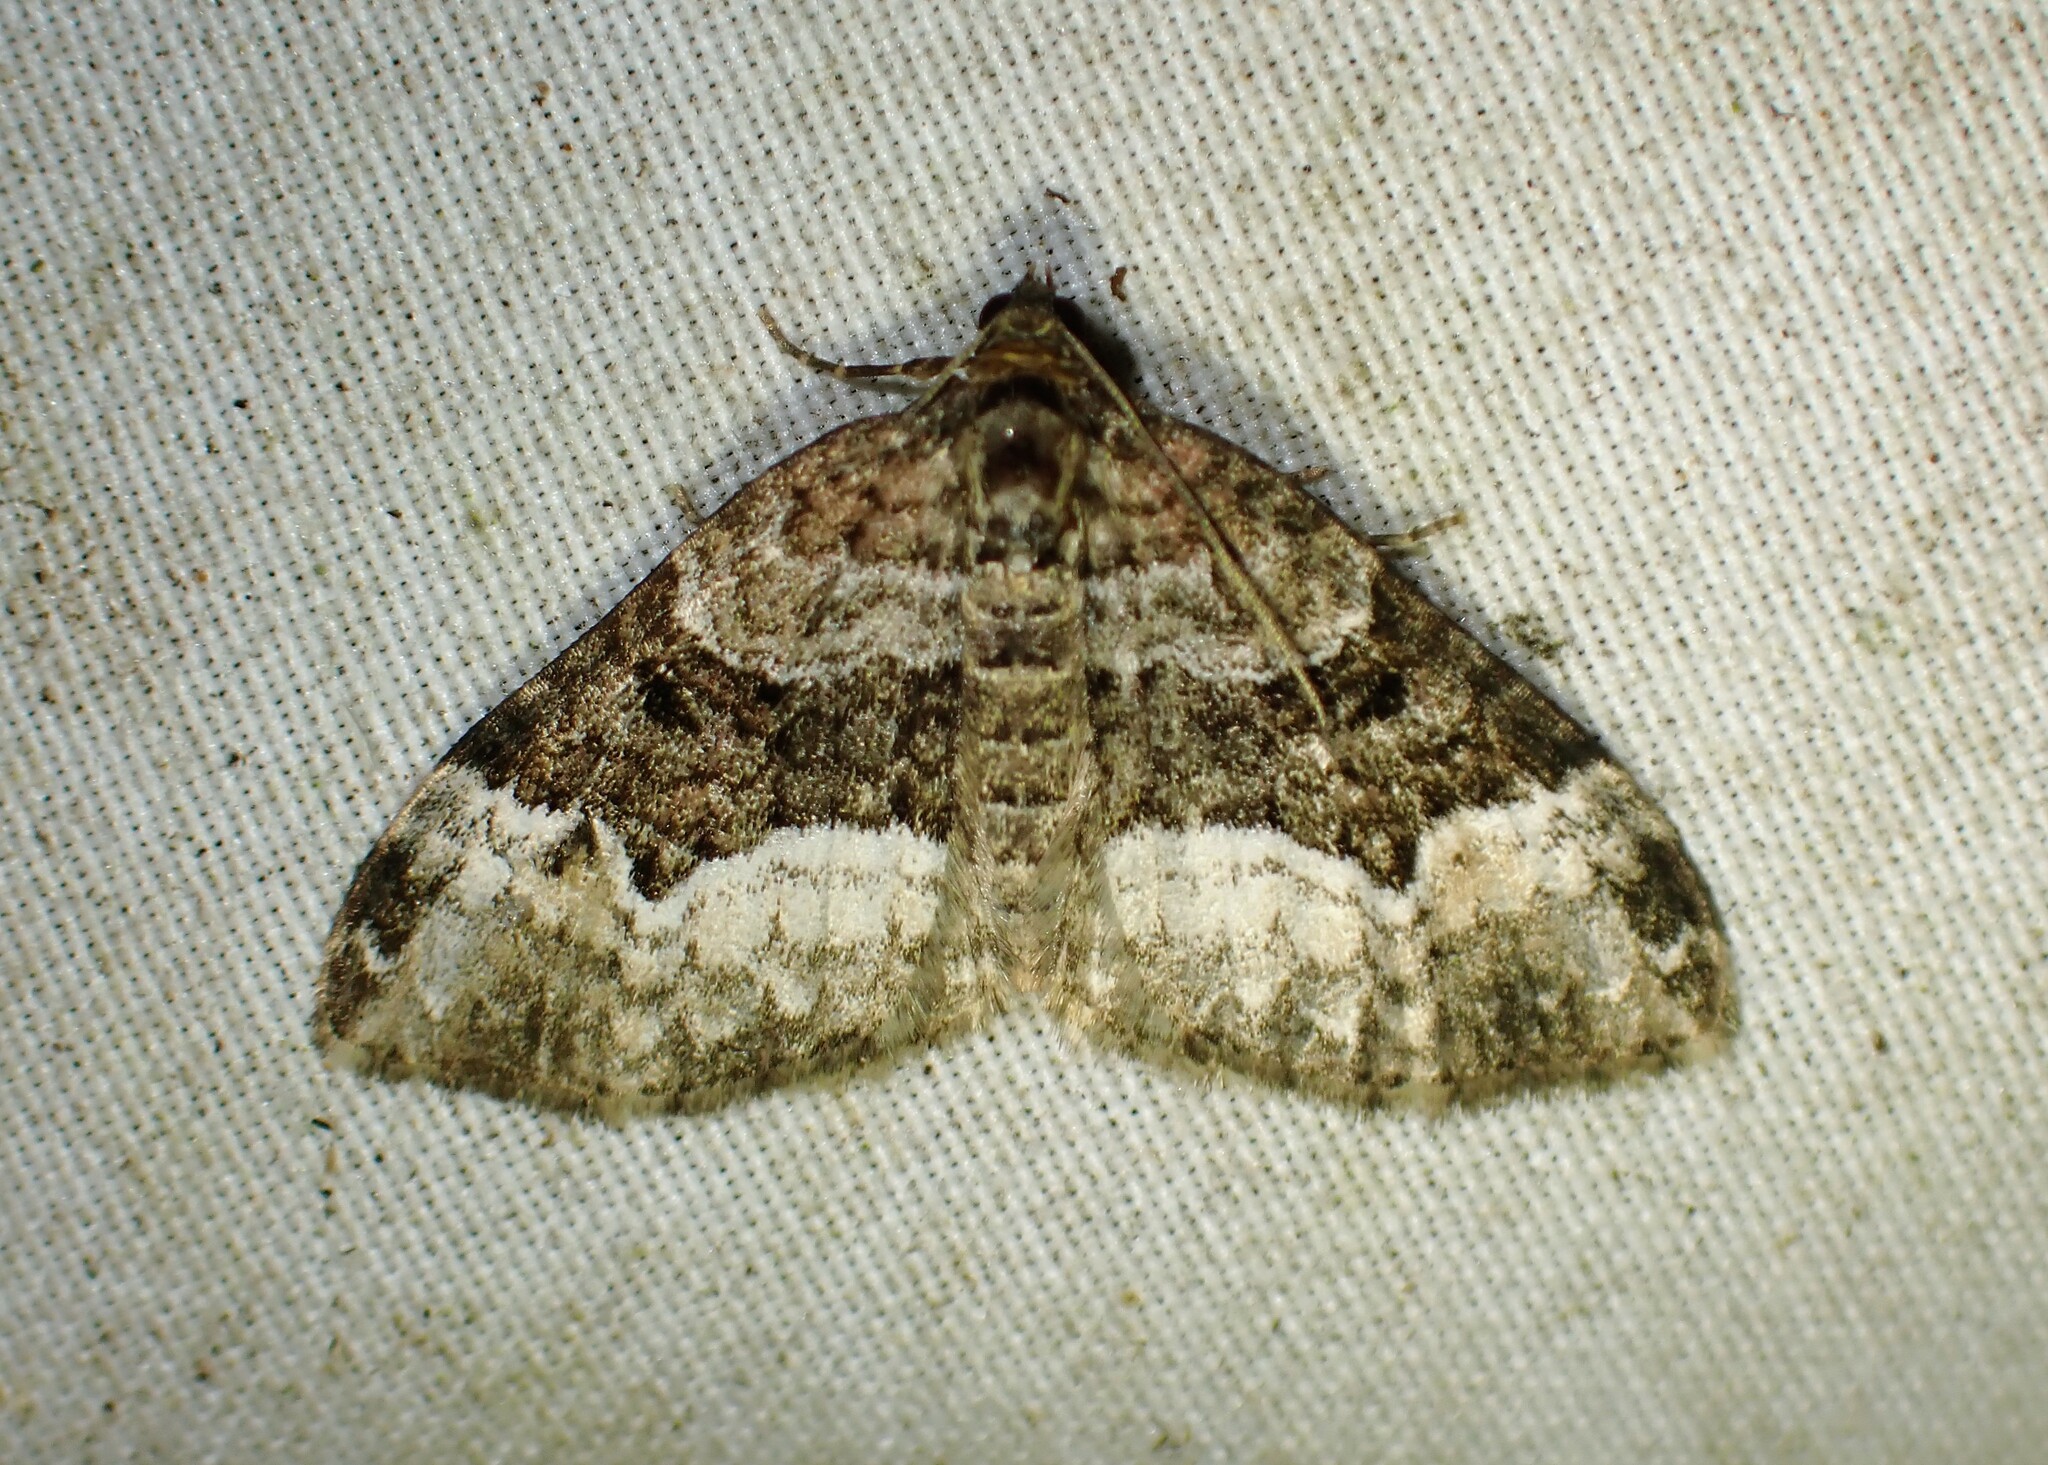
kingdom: Animalia
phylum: Arthropoda
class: Insecta
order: Lepidoptera
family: Geometridae
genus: Euphyia
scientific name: Euphyia intermediata
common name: Sharp-angled carpet
